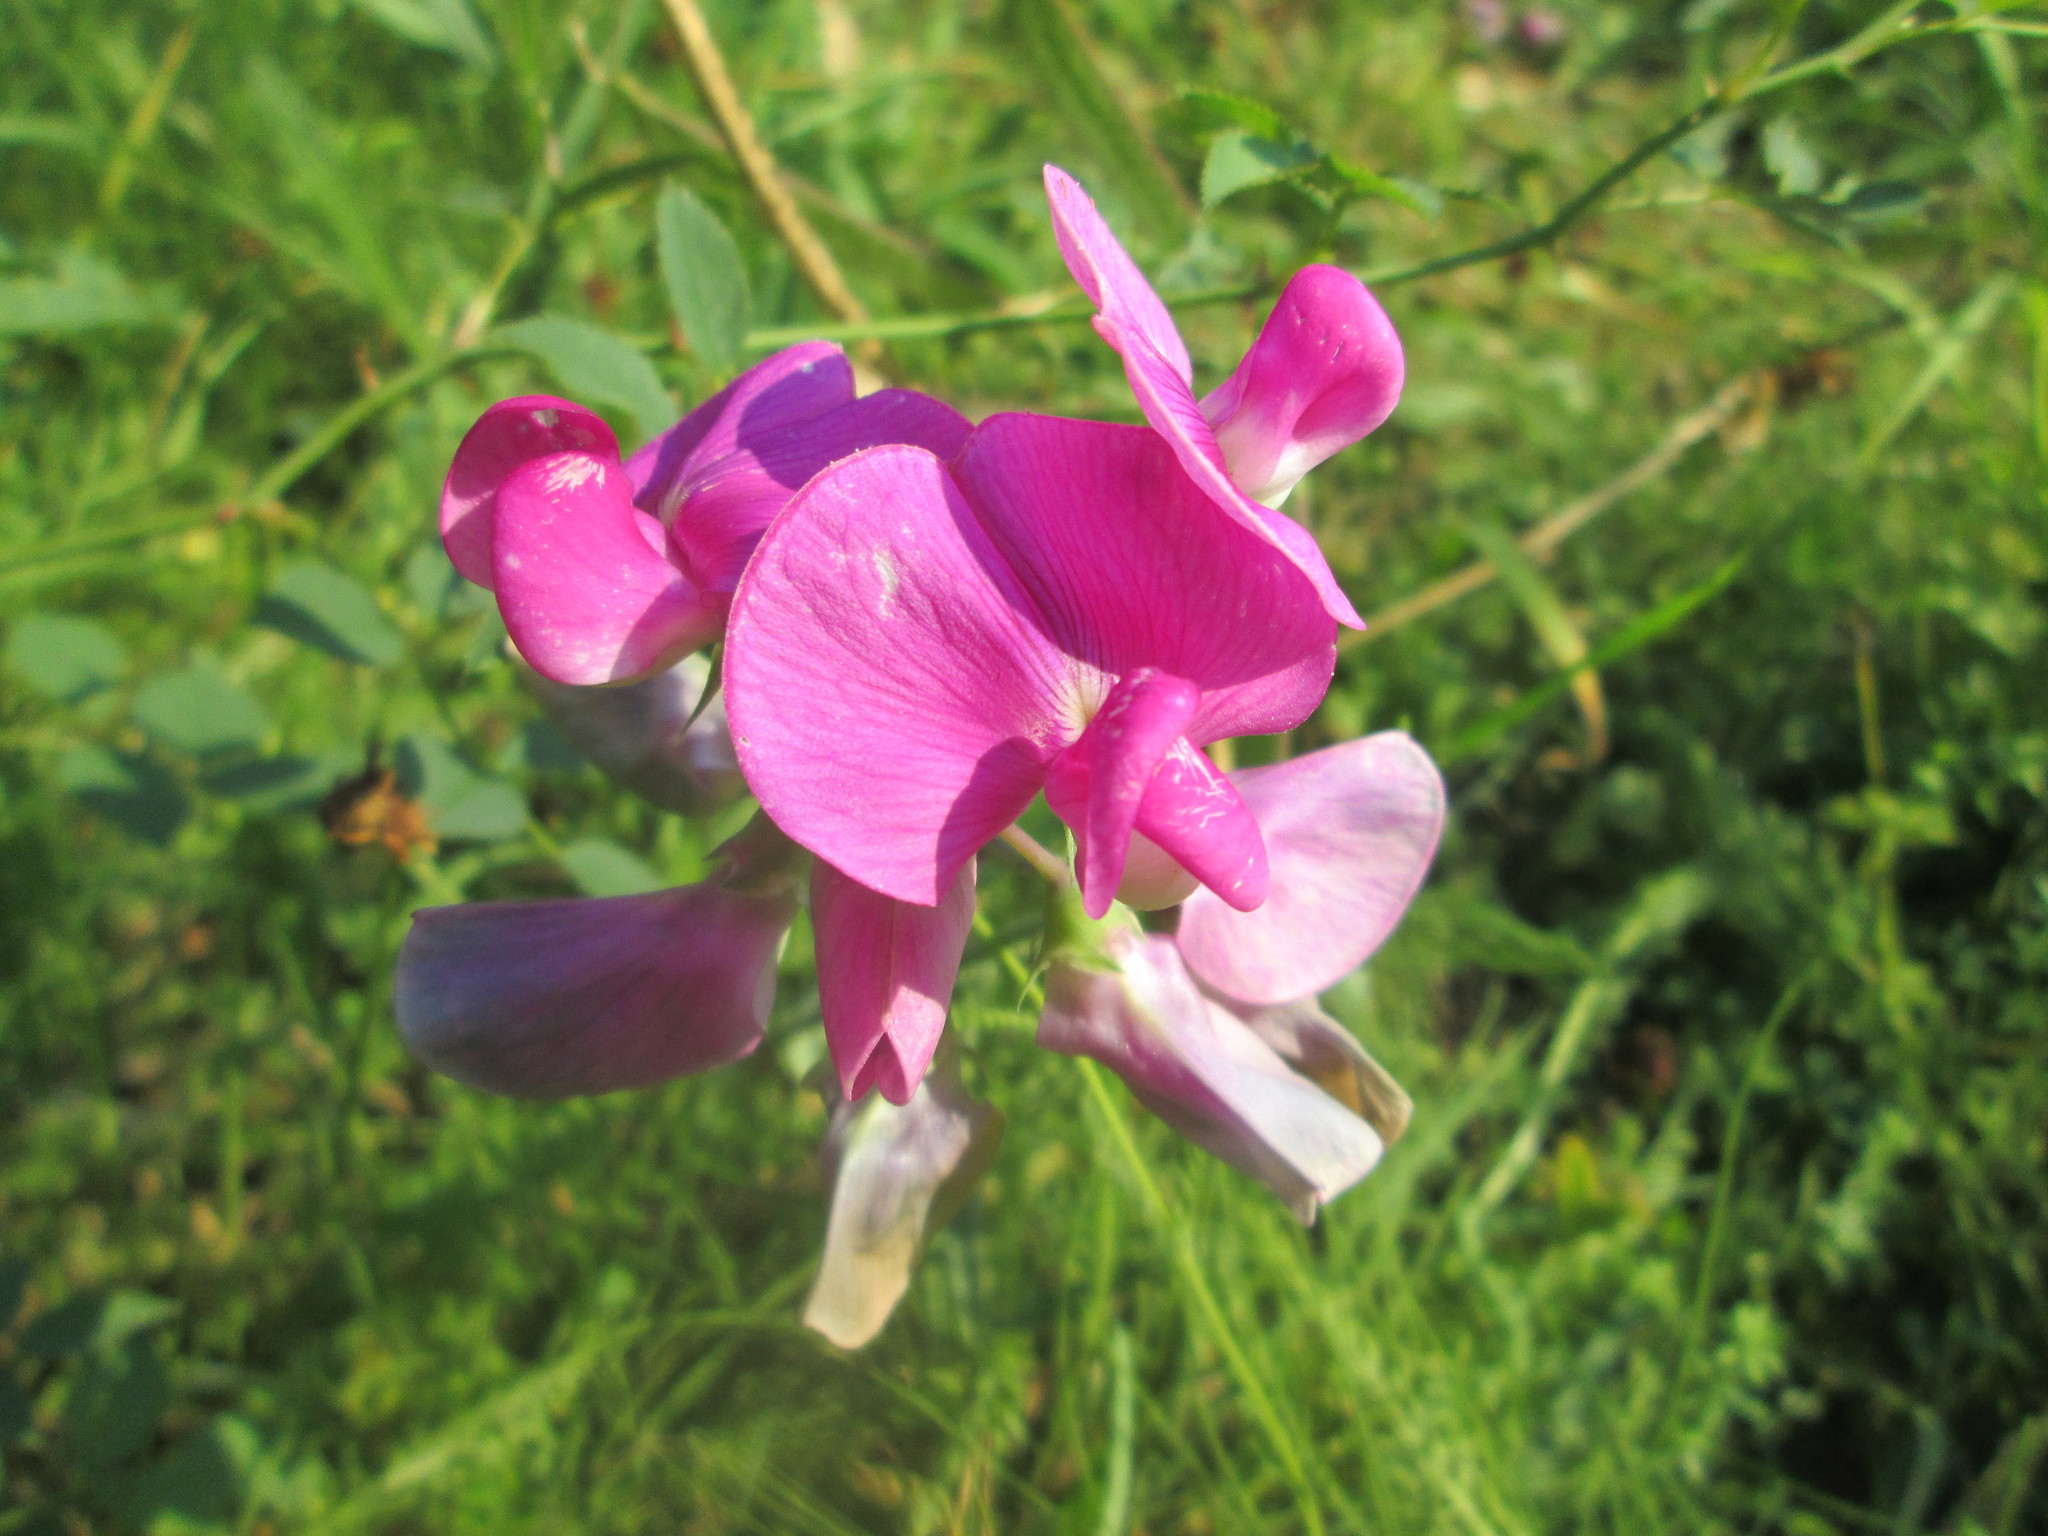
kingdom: Plantae
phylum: Tracheophyta
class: Magnoliopsida
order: Fabales
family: Fabaceae
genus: Lathyrus
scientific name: Lathyrus latifolius
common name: Perennial pea
